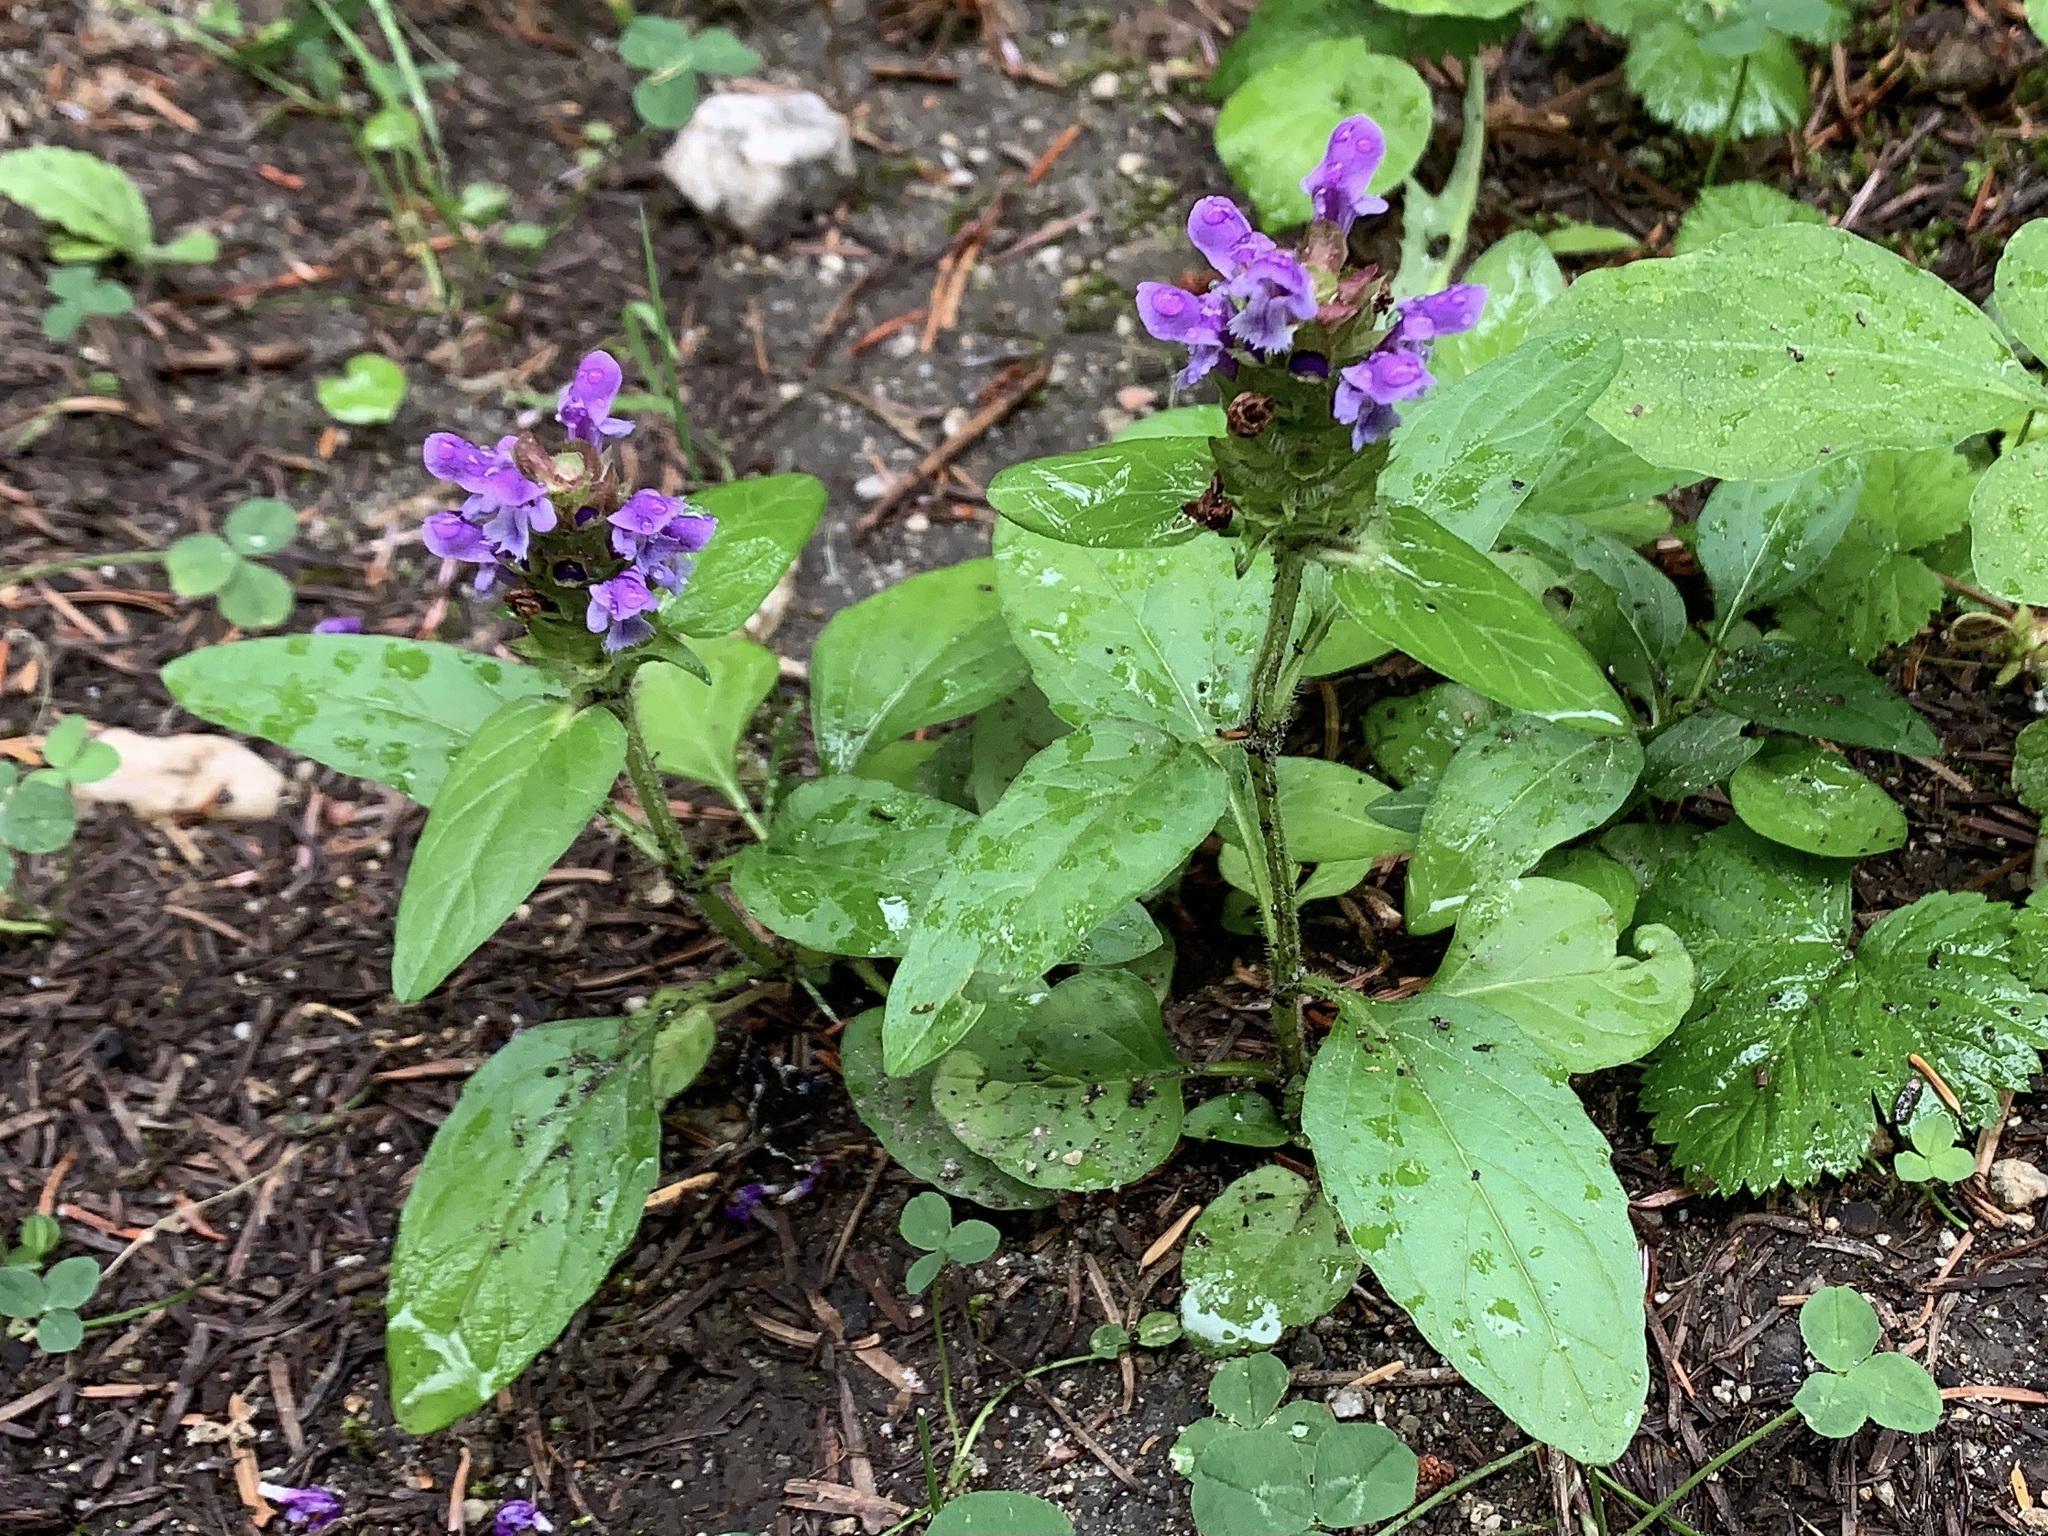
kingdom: Plantae
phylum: Tracheophyta
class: Magnoliopsida
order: Lamiales
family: Lamiaceae
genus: Prunella
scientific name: Prunella vulgaris
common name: Heal-all
